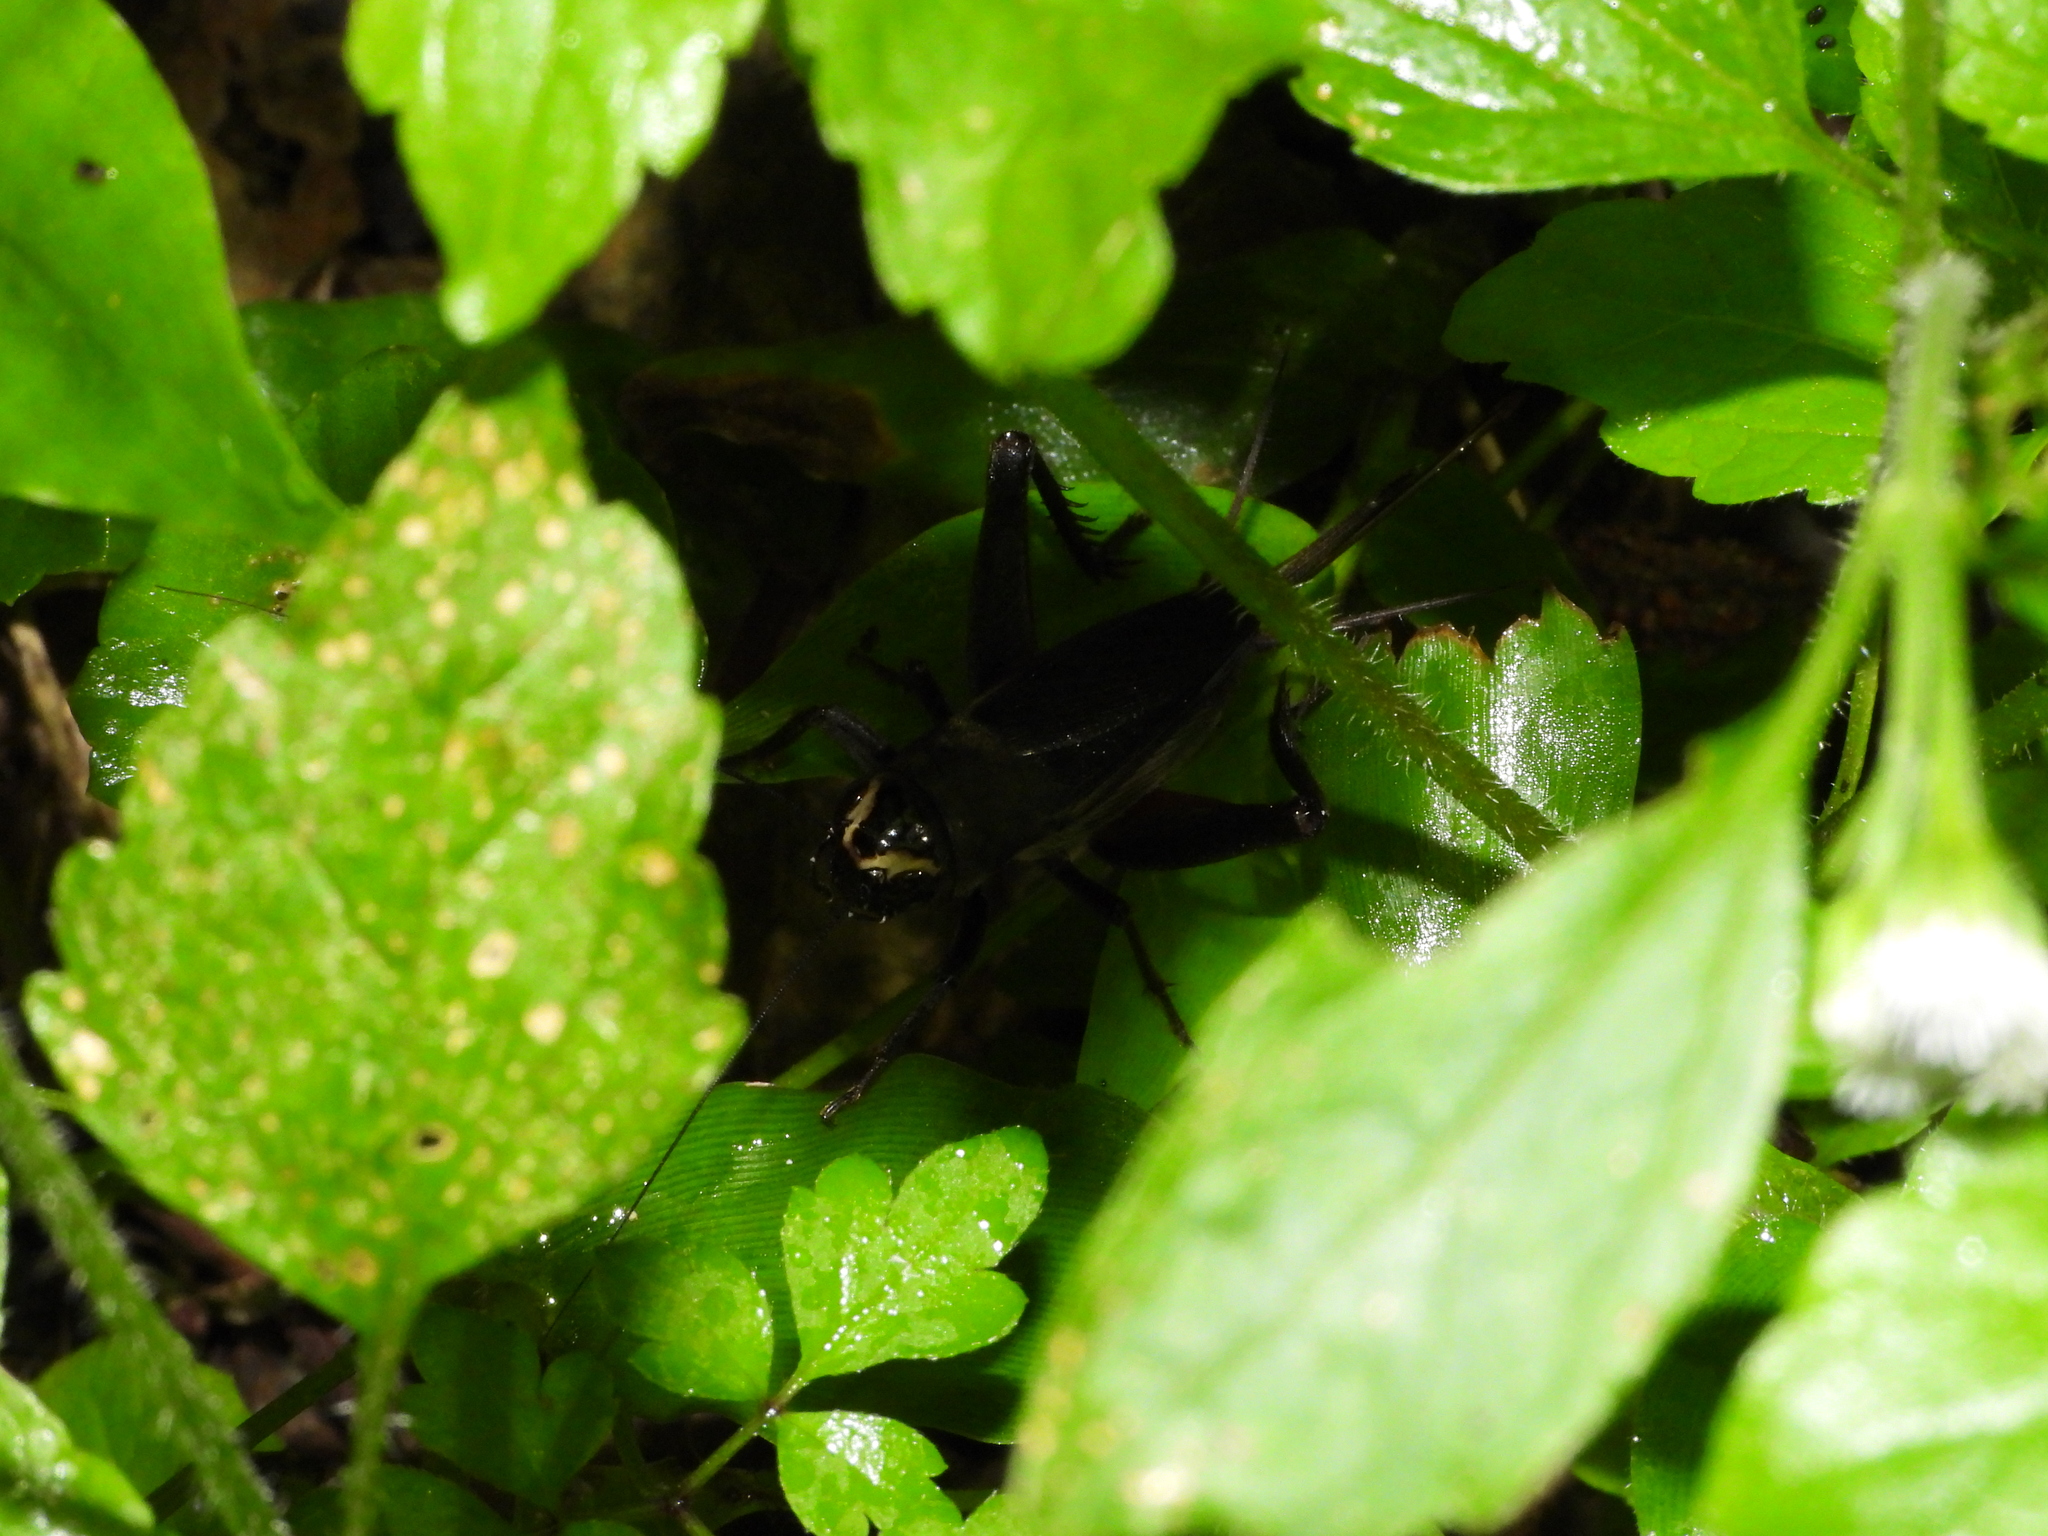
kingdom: Animalia
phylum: Arthropoda
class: Insecta
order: Orthoptera
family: Gryllidae
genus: Teleogryllus
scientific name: Teleogryllus occipitalis
